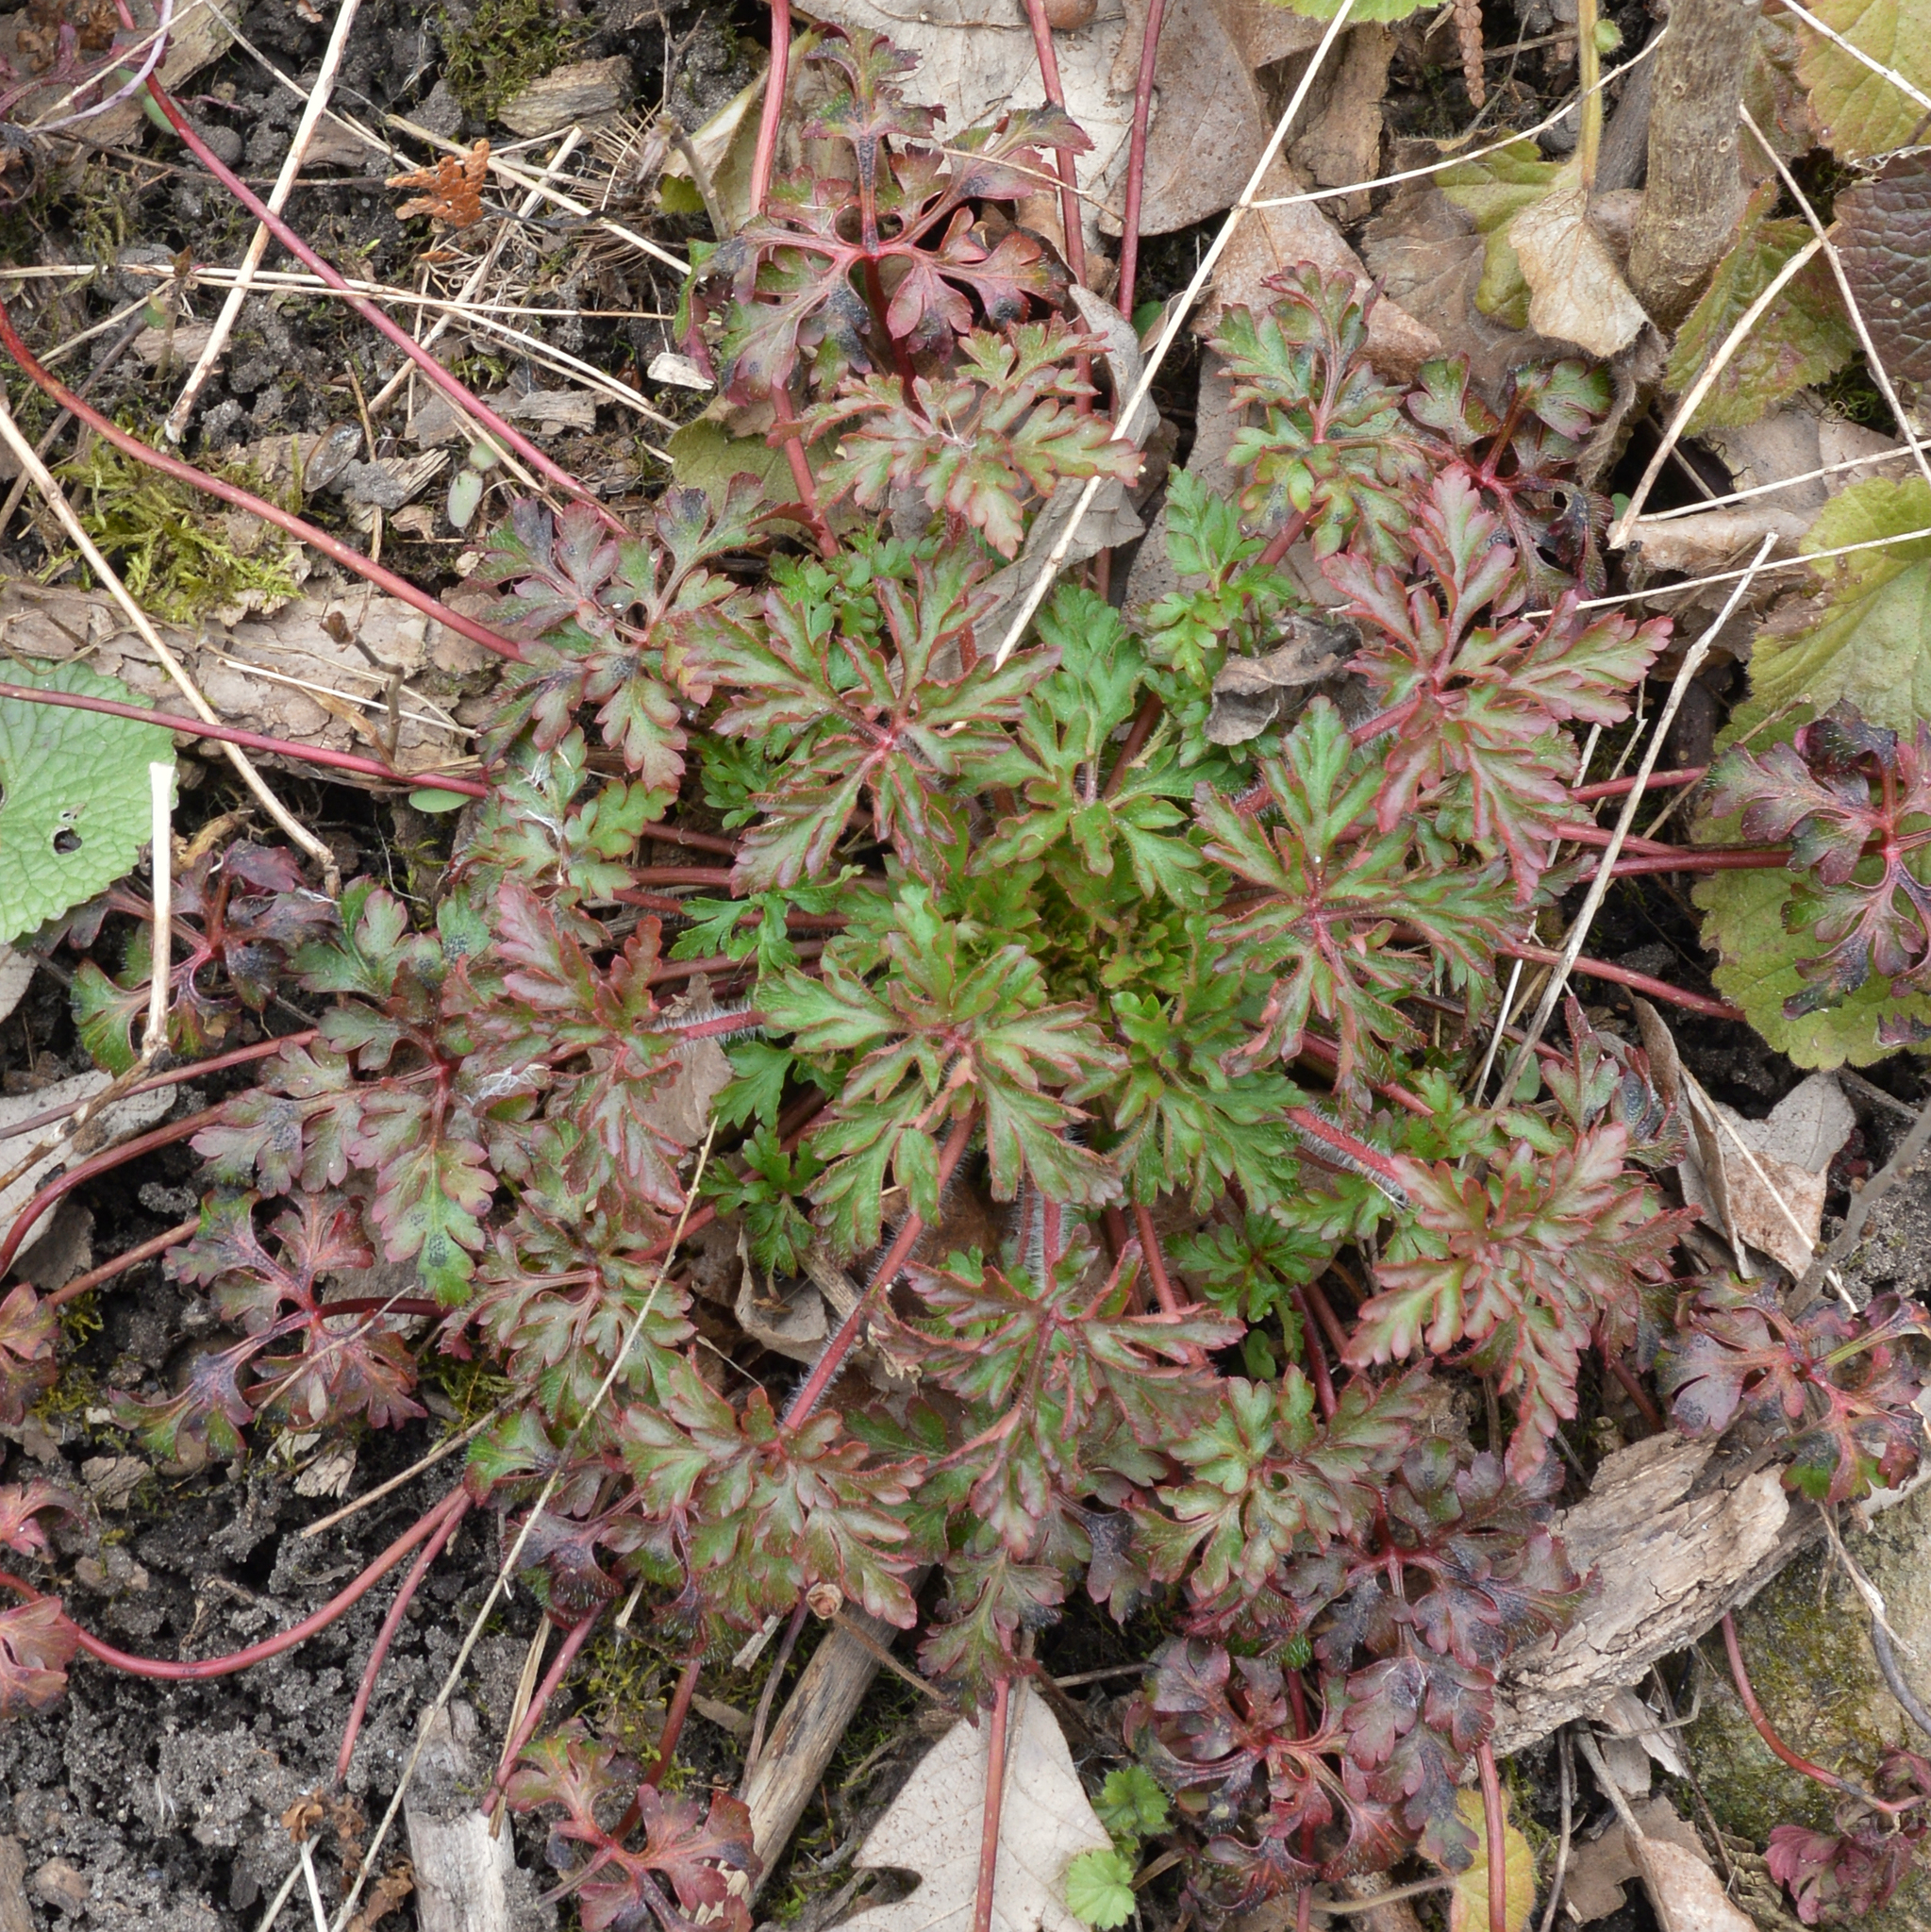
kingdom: Plantae
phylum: Tracheophyta
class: Magnoliopsida
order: Geraniales
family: Geraniaceae
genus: Geranium
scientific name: Geranium robertianum
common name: Herb-robert
